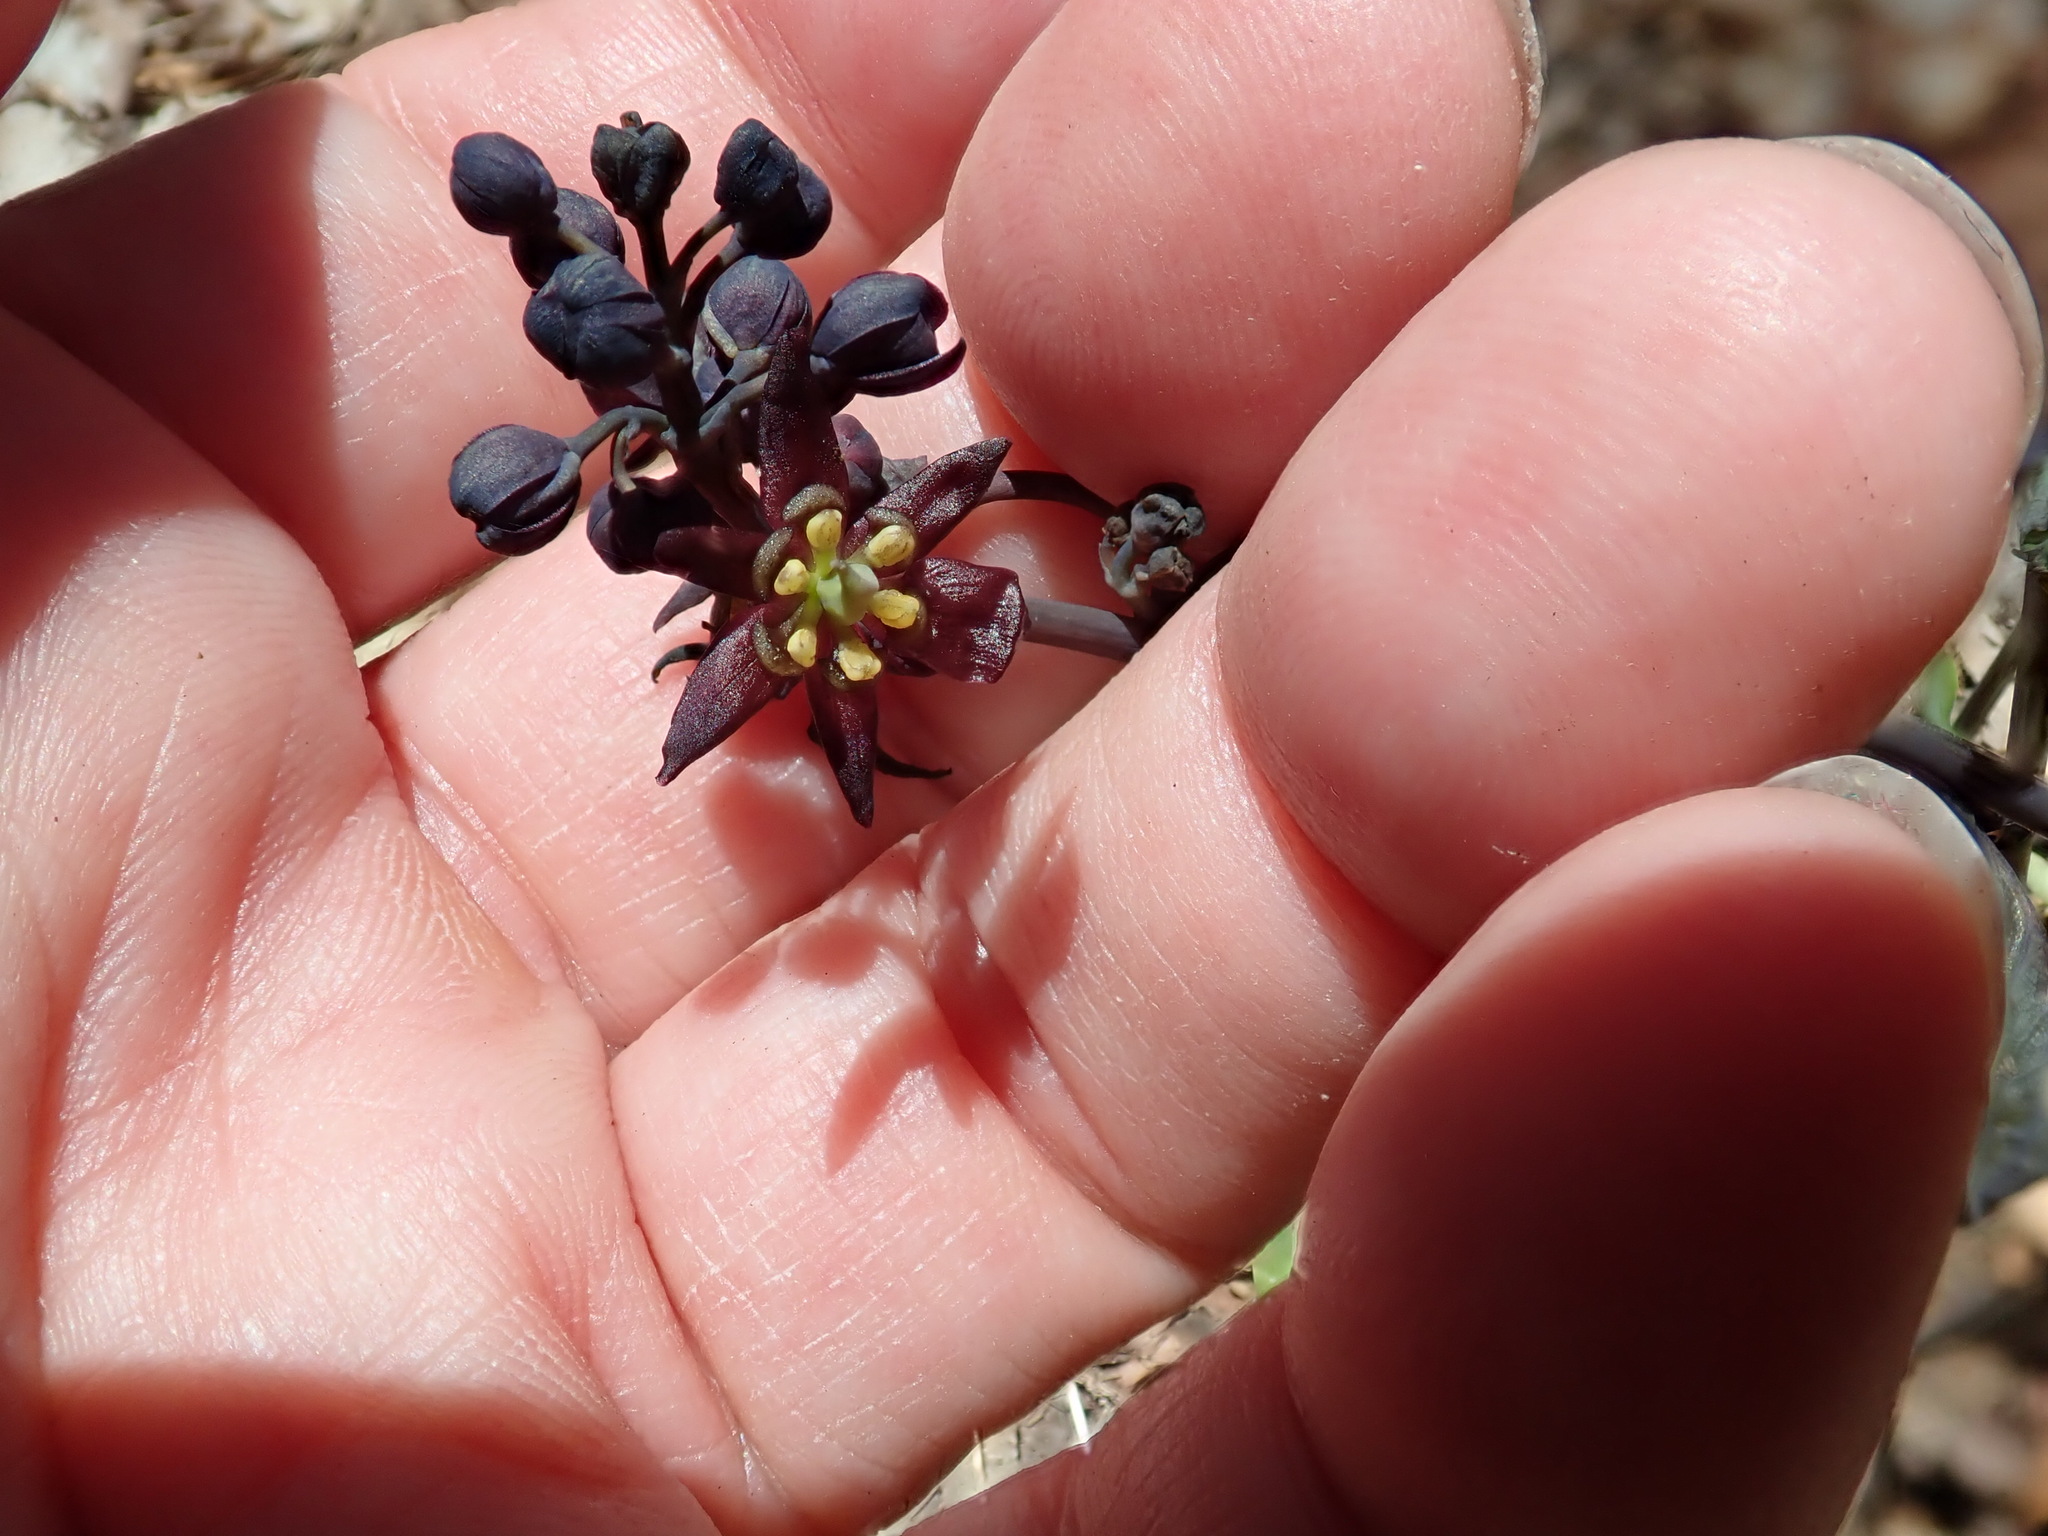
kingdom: Plantae
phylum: Tracheophyta
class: Magnoliopsida
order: Ranunculales
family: Berberidaceae
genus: Caulophyllum
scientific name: Caulophyllum giganteum
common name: Blue cohosh
